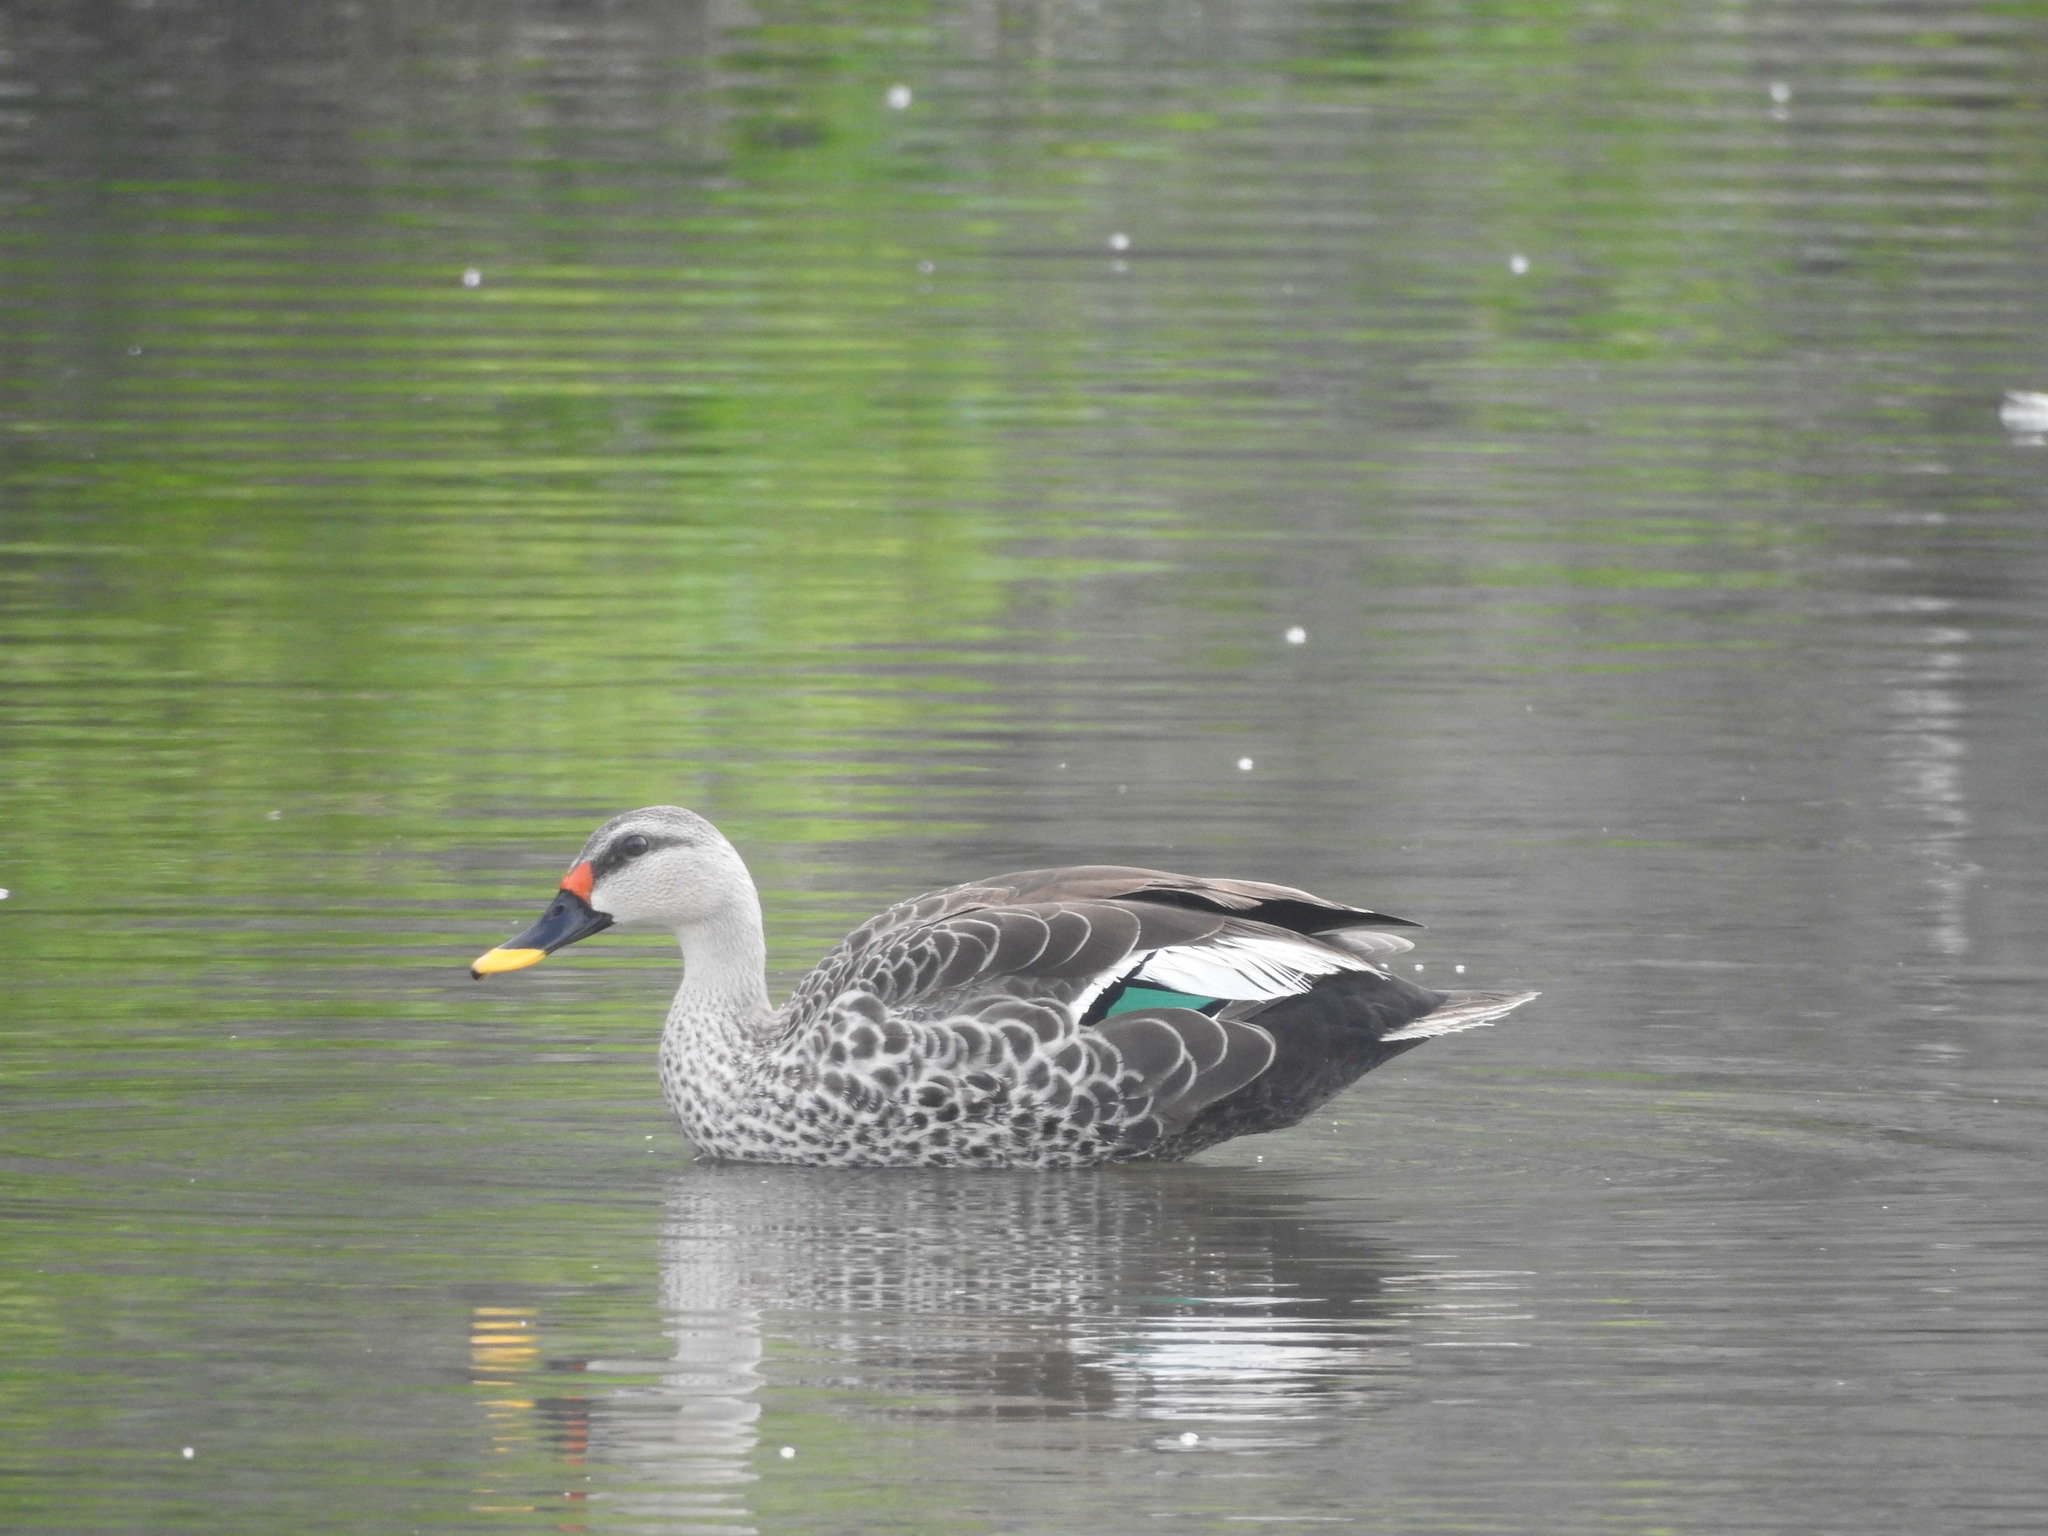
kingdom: Animalia
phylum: Chordata
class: Aves
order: Anseriformes
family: Anatidae
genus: Anas
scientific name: Anas poecilorhyncha
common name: Indian spot-billed duck
